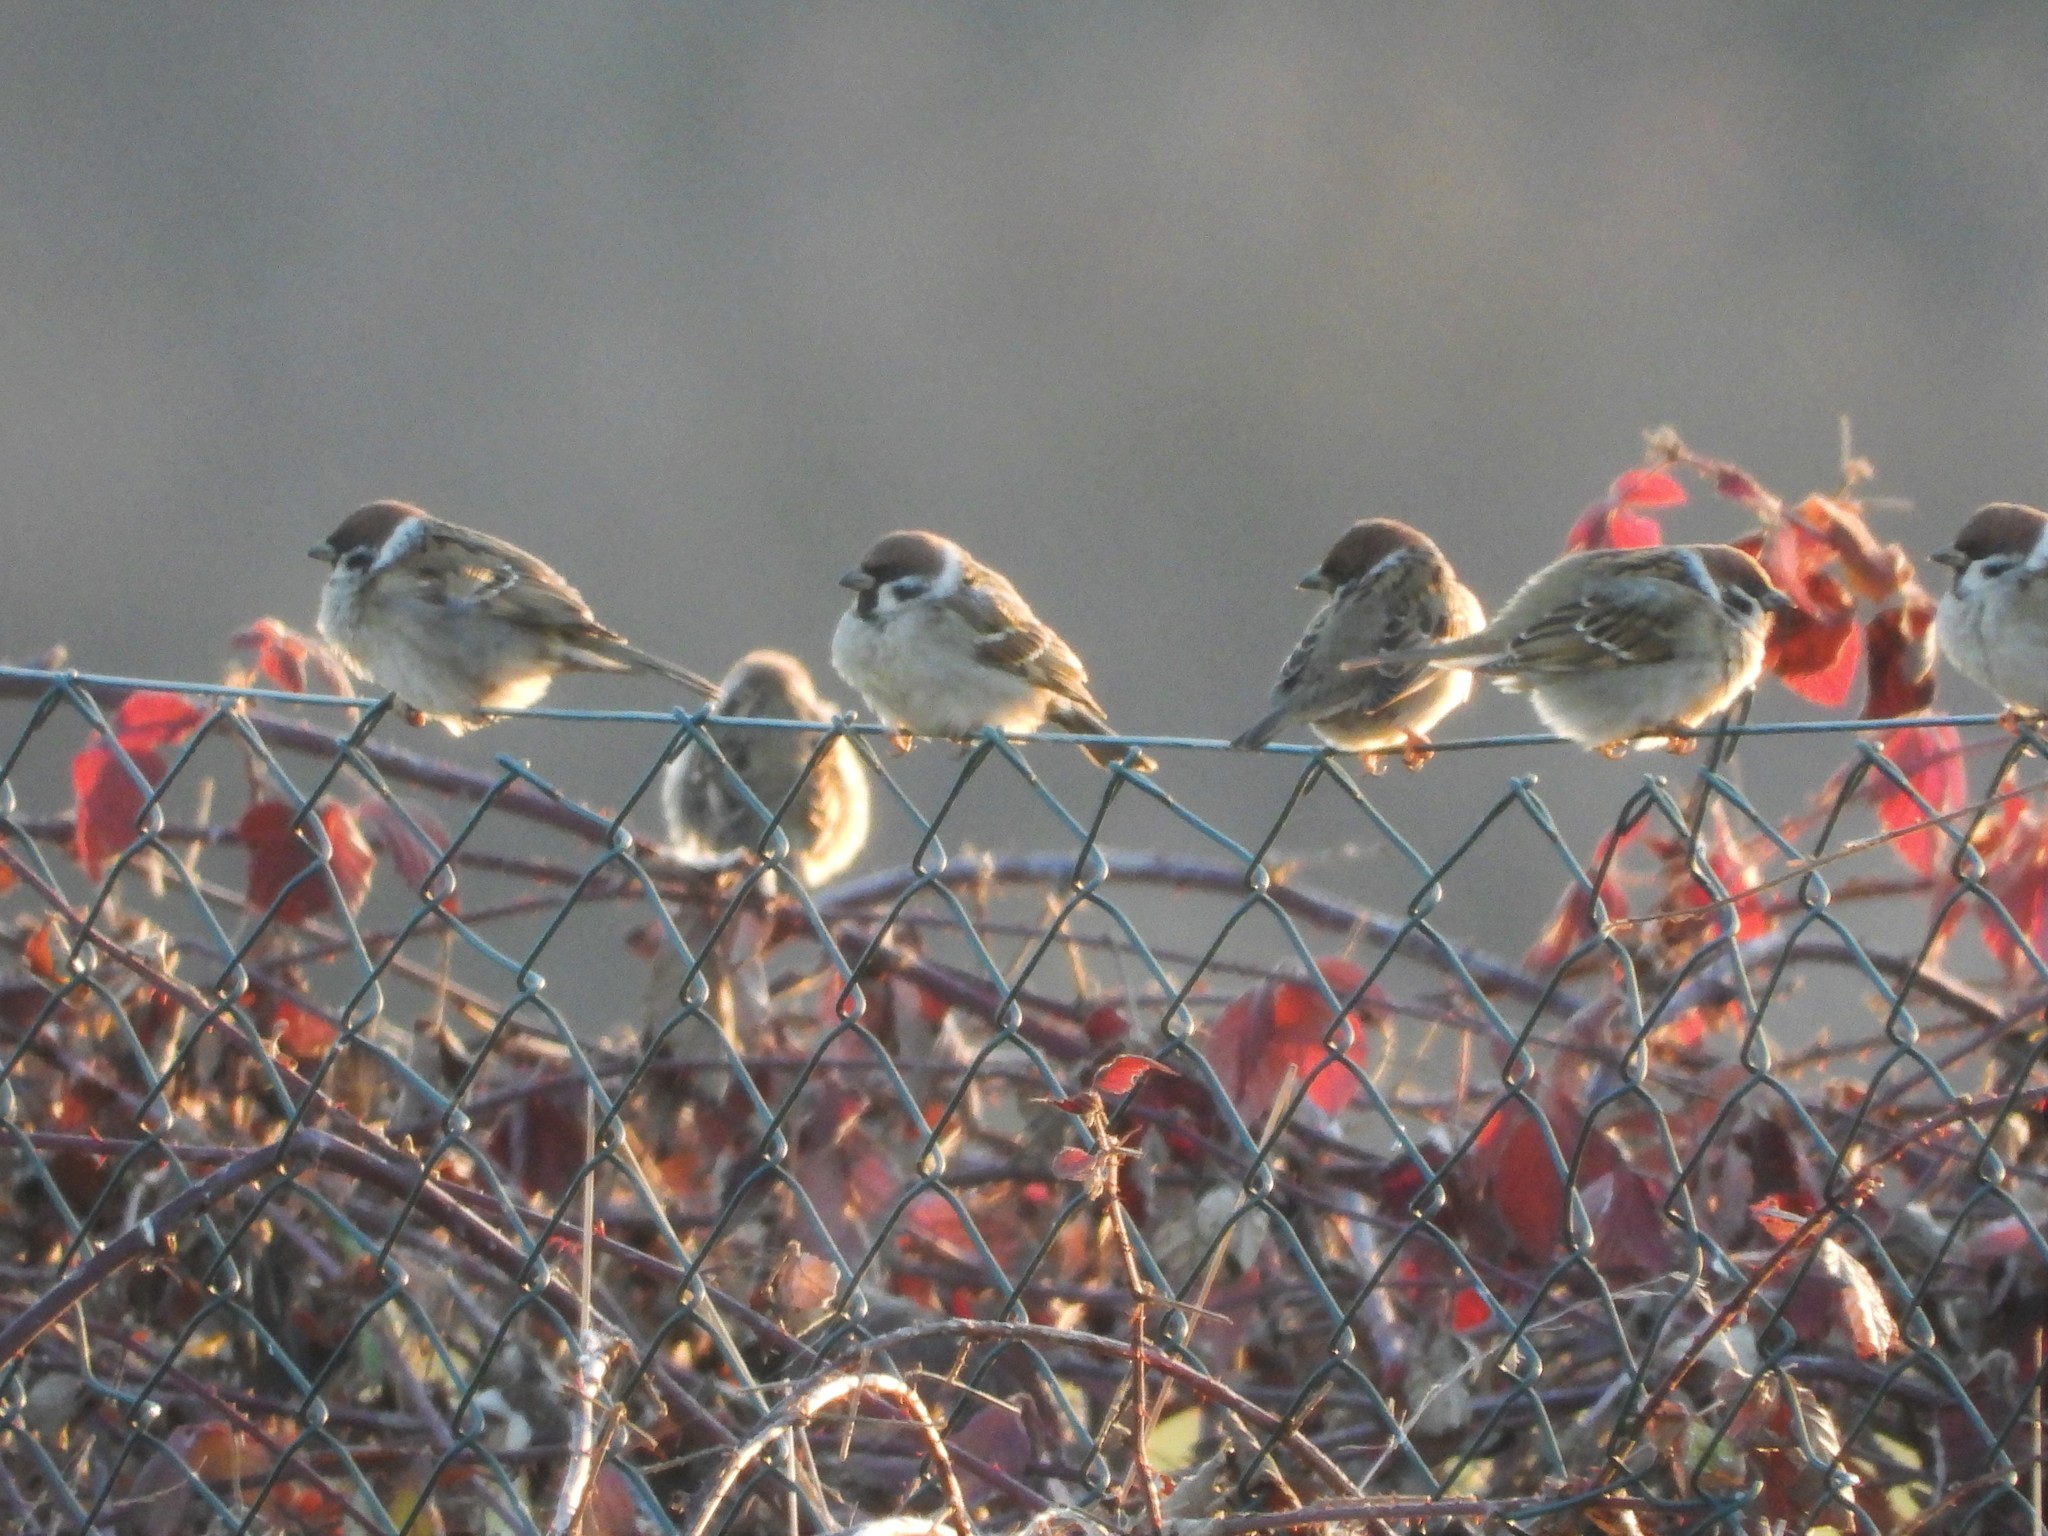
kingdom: Animalia
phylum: Chordata
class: Aves
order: Passeriformes
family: Passeridae
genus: Passer
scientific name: Passer montanus
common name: Eurasian tree sparrow
